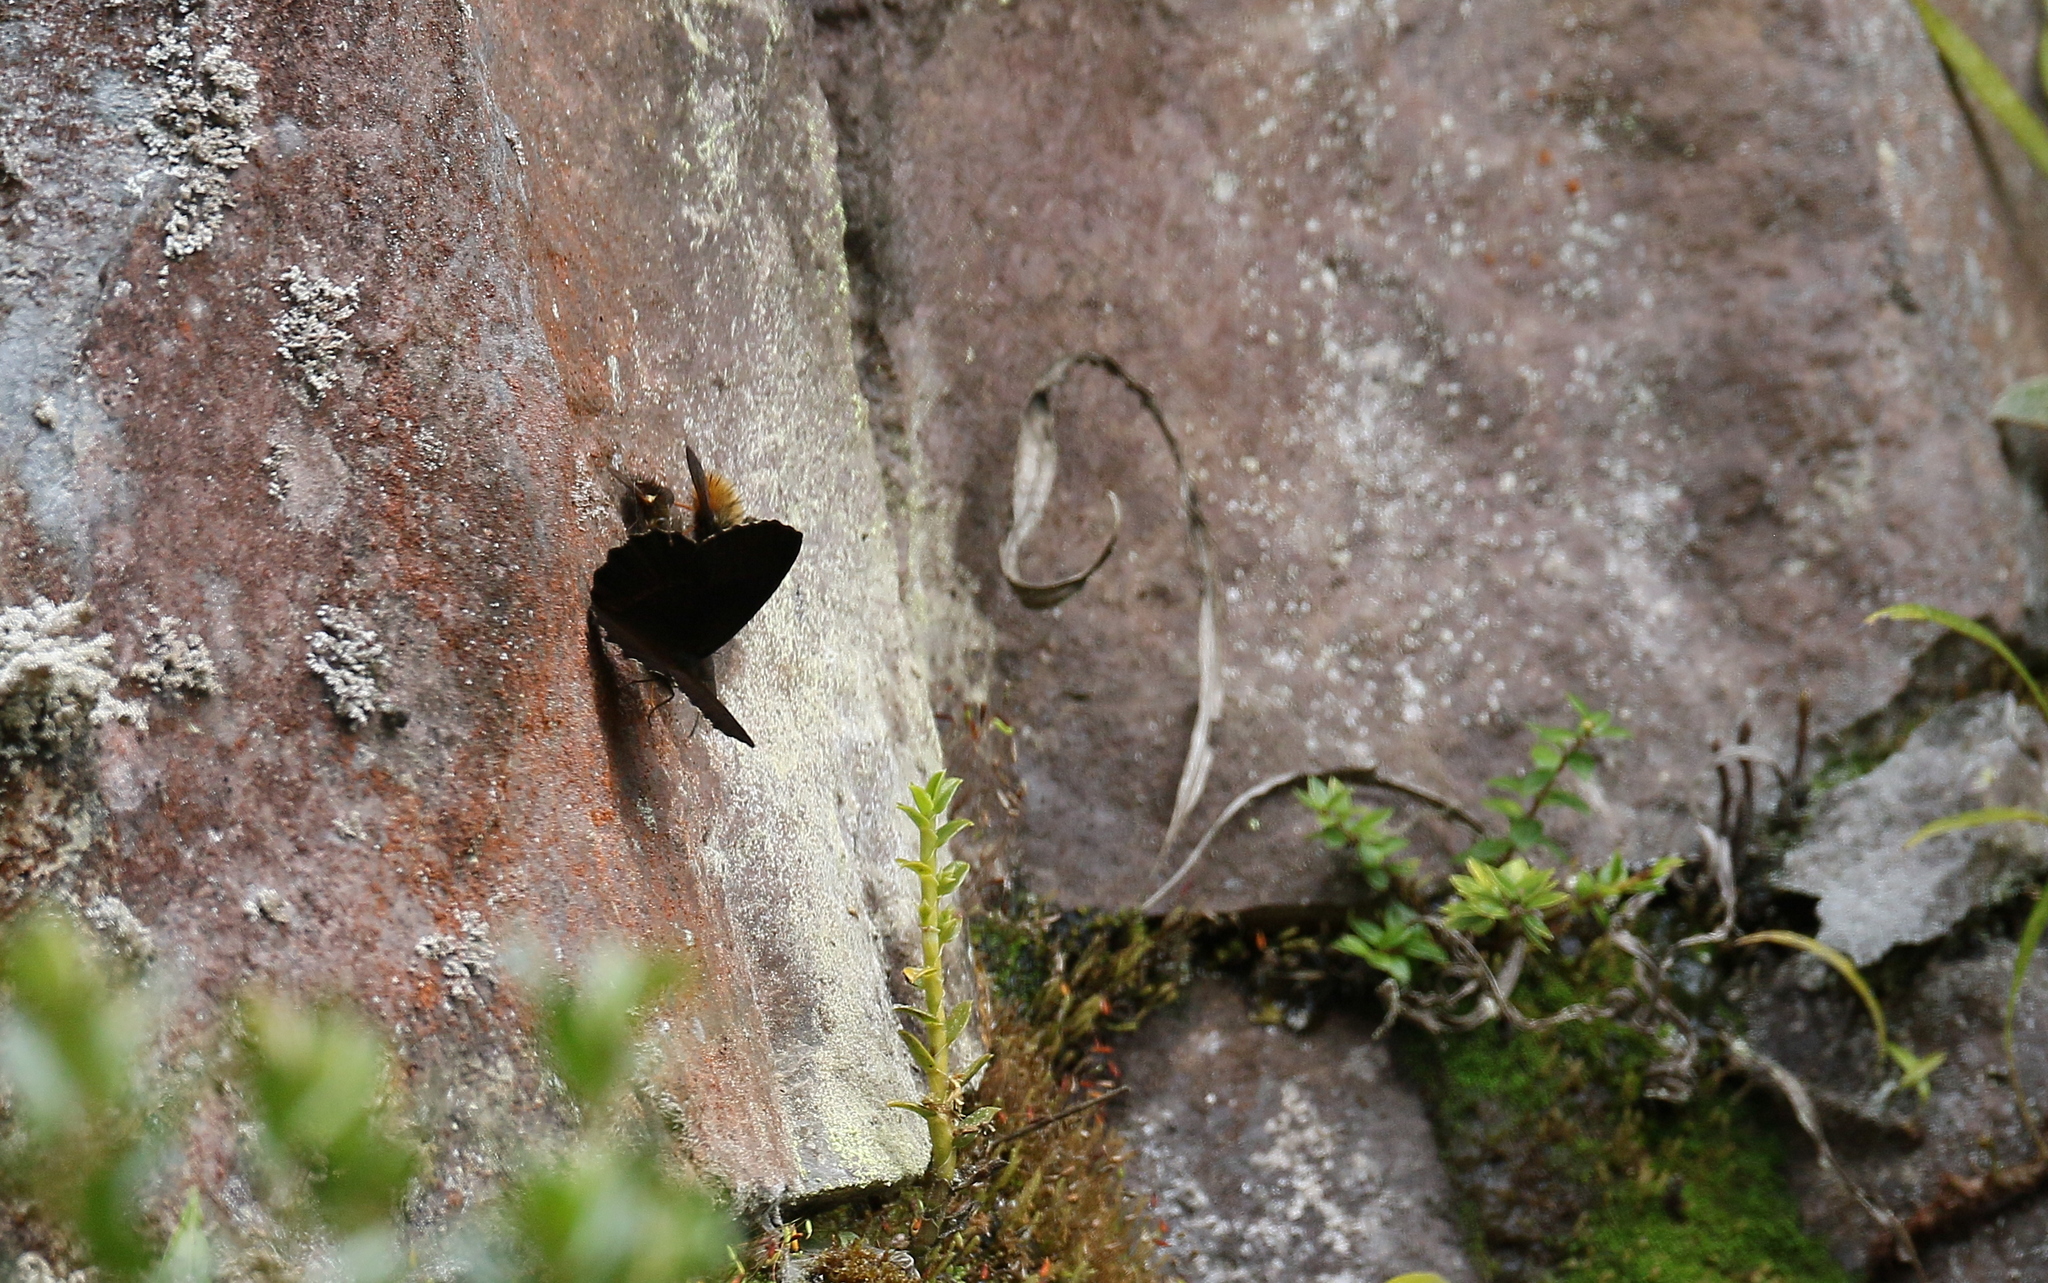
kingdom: Animalia
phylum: Arthropoda
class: Insecta
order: Lepidoptera
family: Nymphalidae
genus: Pedaliodes
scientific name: Pedaliodes pactyes
